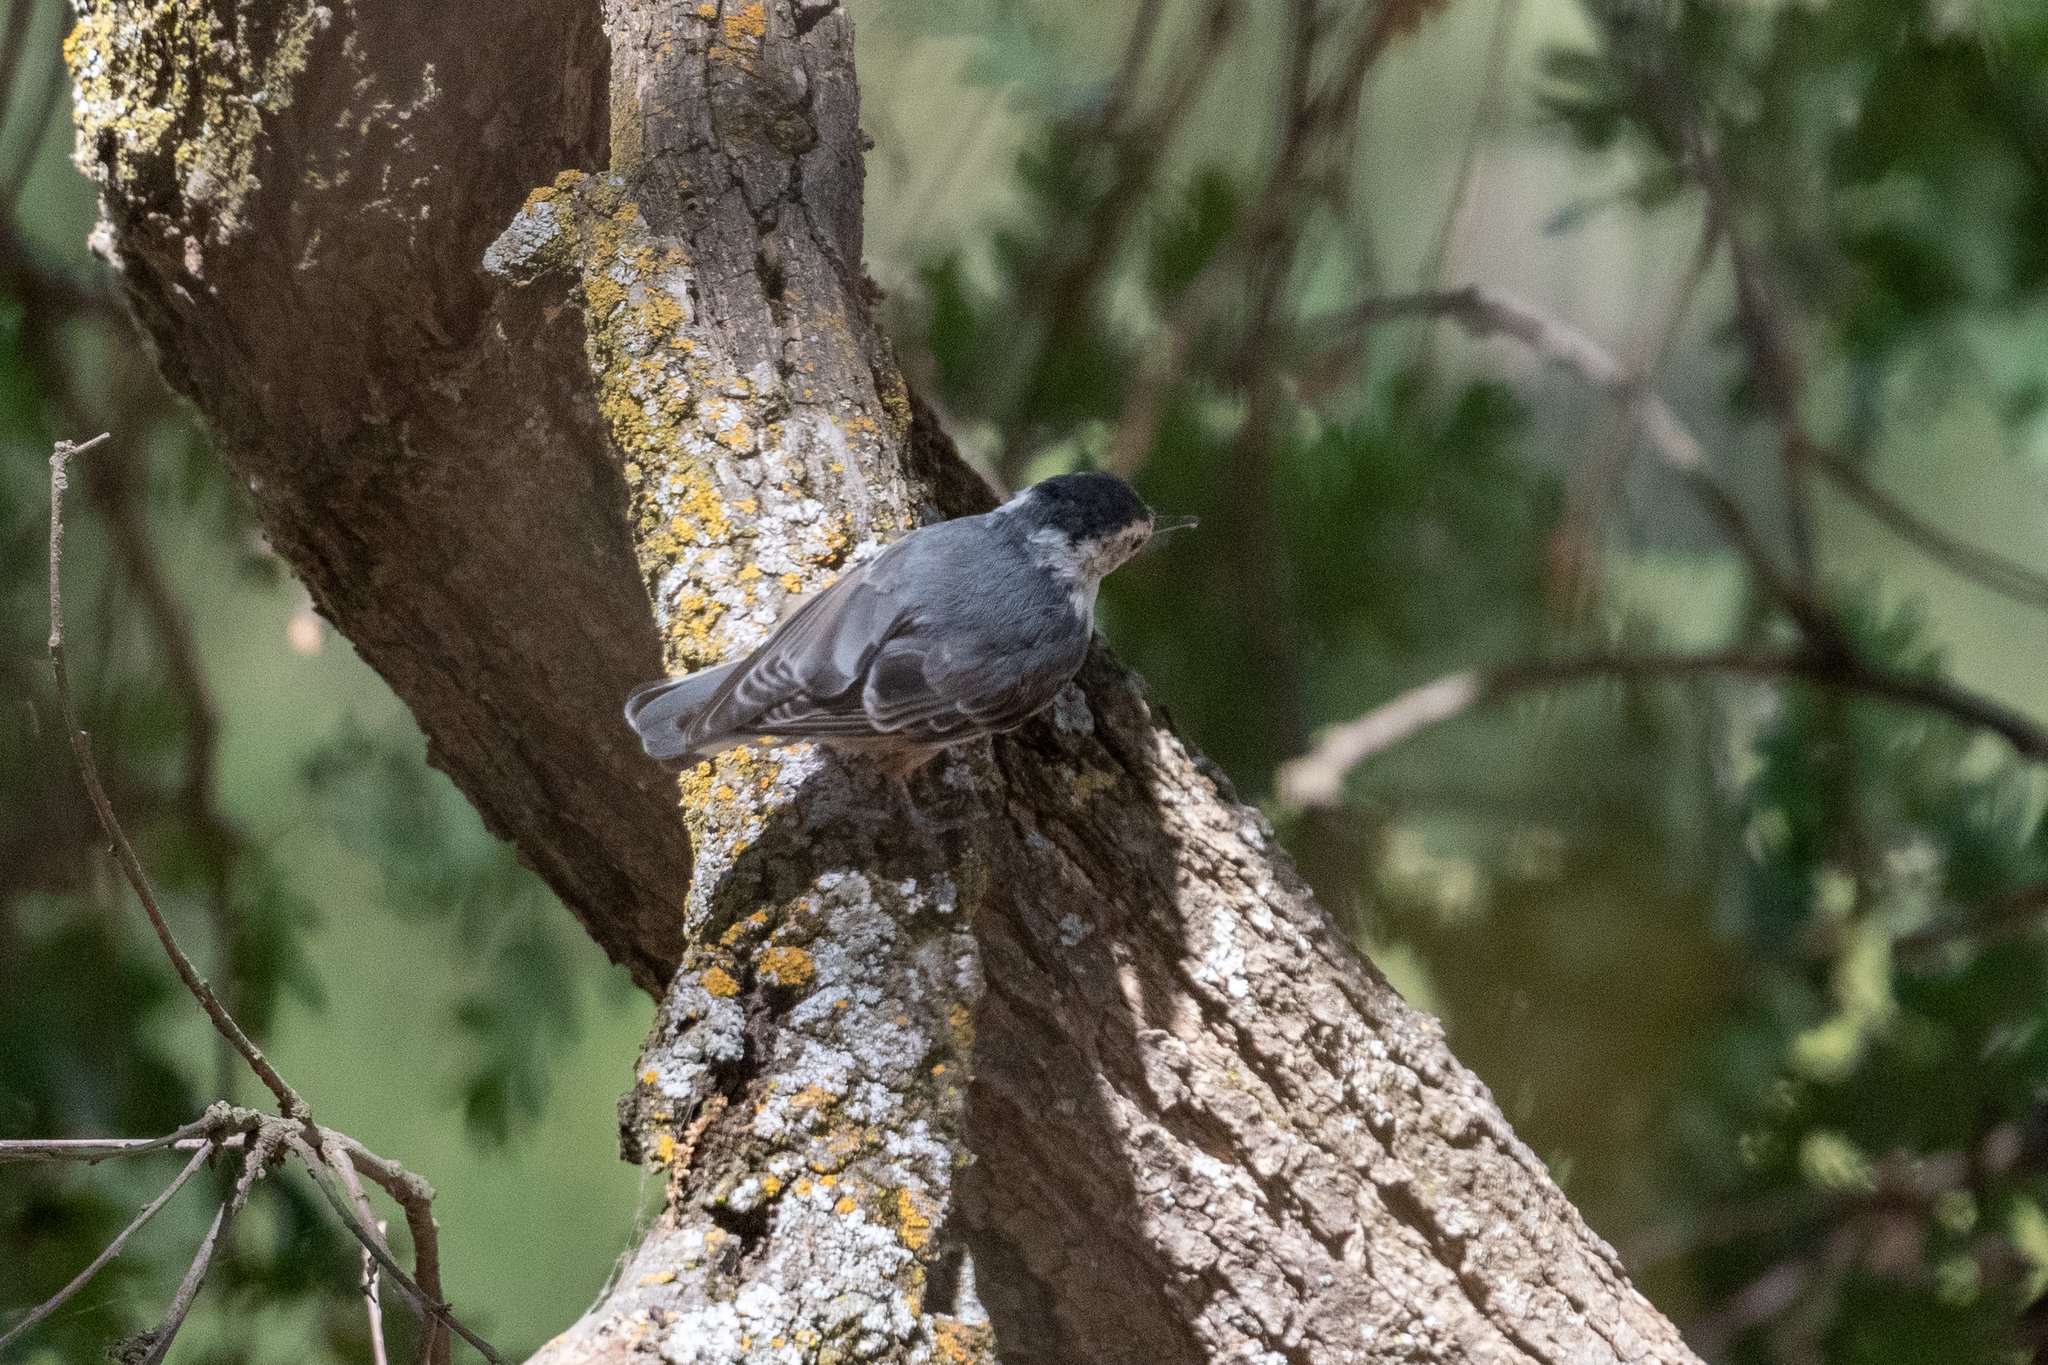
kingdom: Animalia
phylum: Chordata
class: Aves
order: Passeriformes
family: Sittidae
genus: Sitta
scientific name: Sitta carolinensis
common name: White-breasted nuthatch
